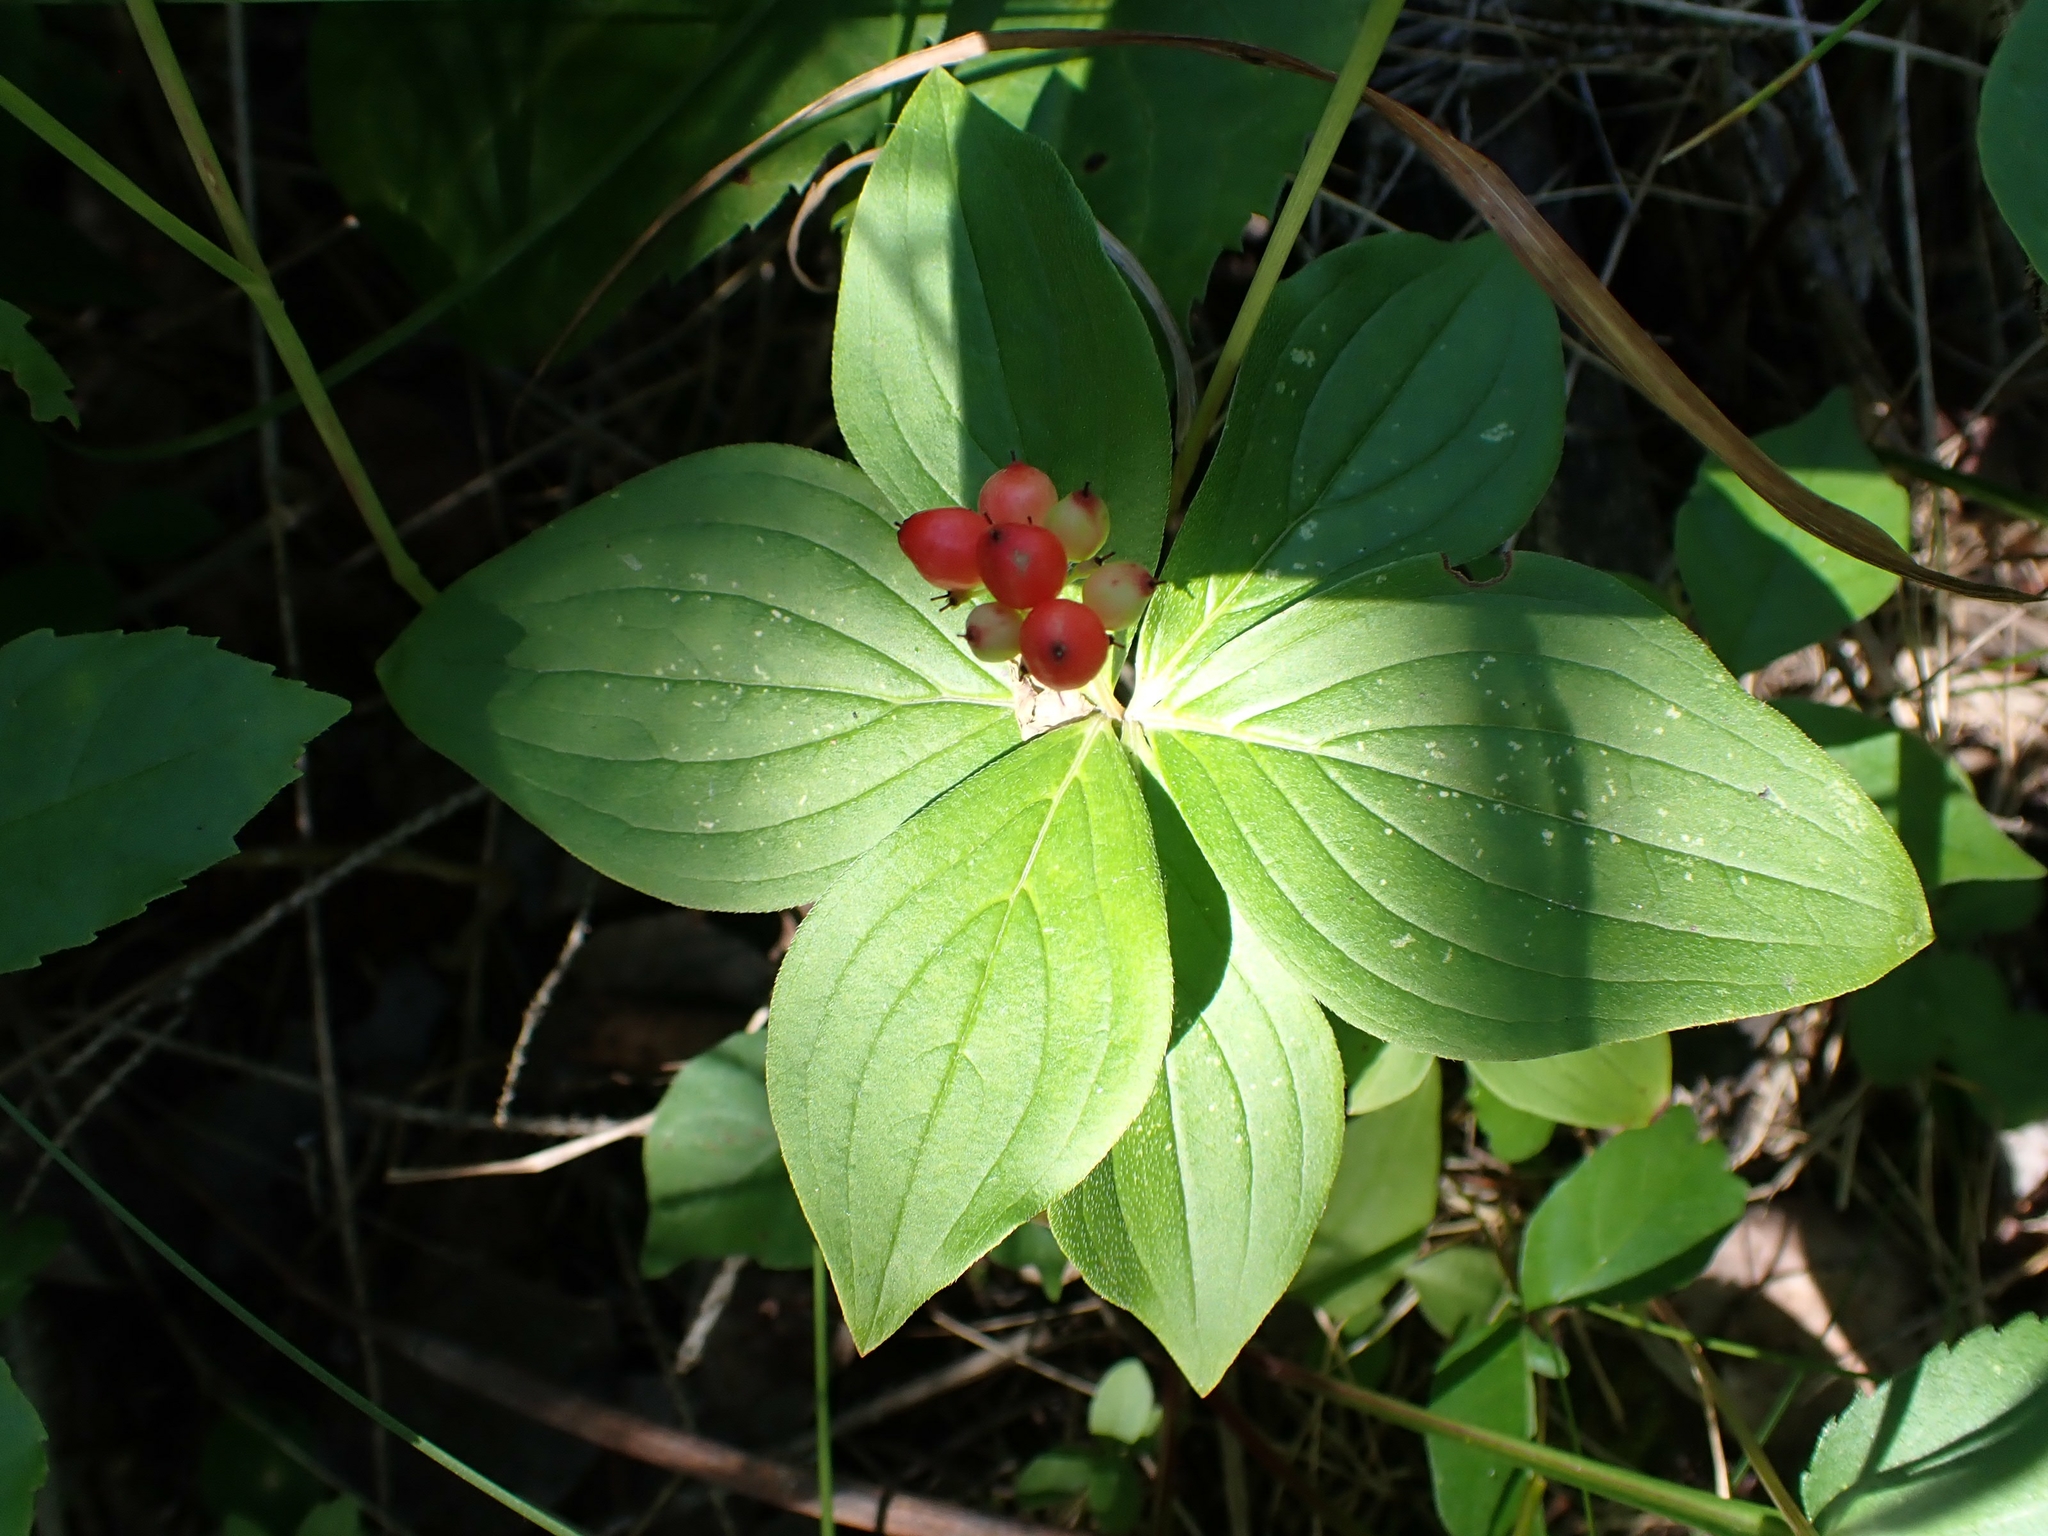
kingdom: Plantae
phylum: Tracheophyta
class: Magnoliopsida
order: Cornales
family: Cornaceae
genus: Cornus
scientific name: Cornus canadensis
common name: Creeping dogwood
